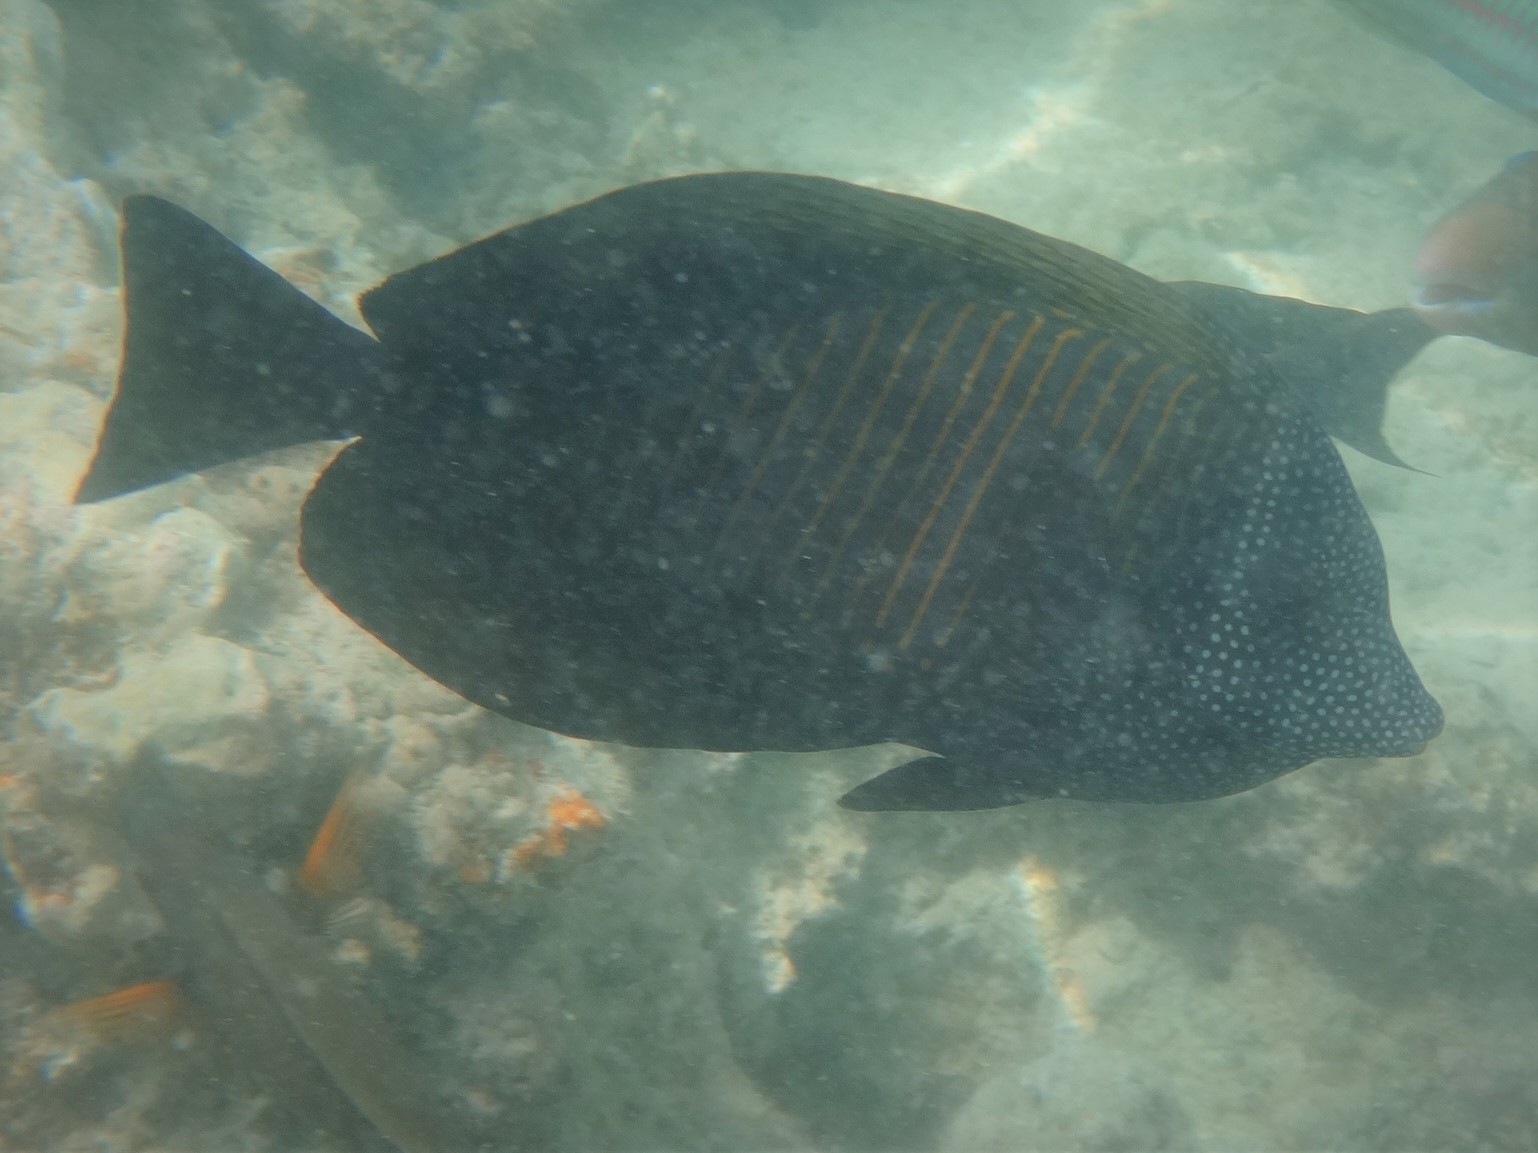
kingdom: Animalia
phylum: Chordata
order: Perciformes
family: Acanthuridae
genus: Zebrasoma
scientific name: Zebrasoma desjardinii
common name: Desjardin's sailfin tang
